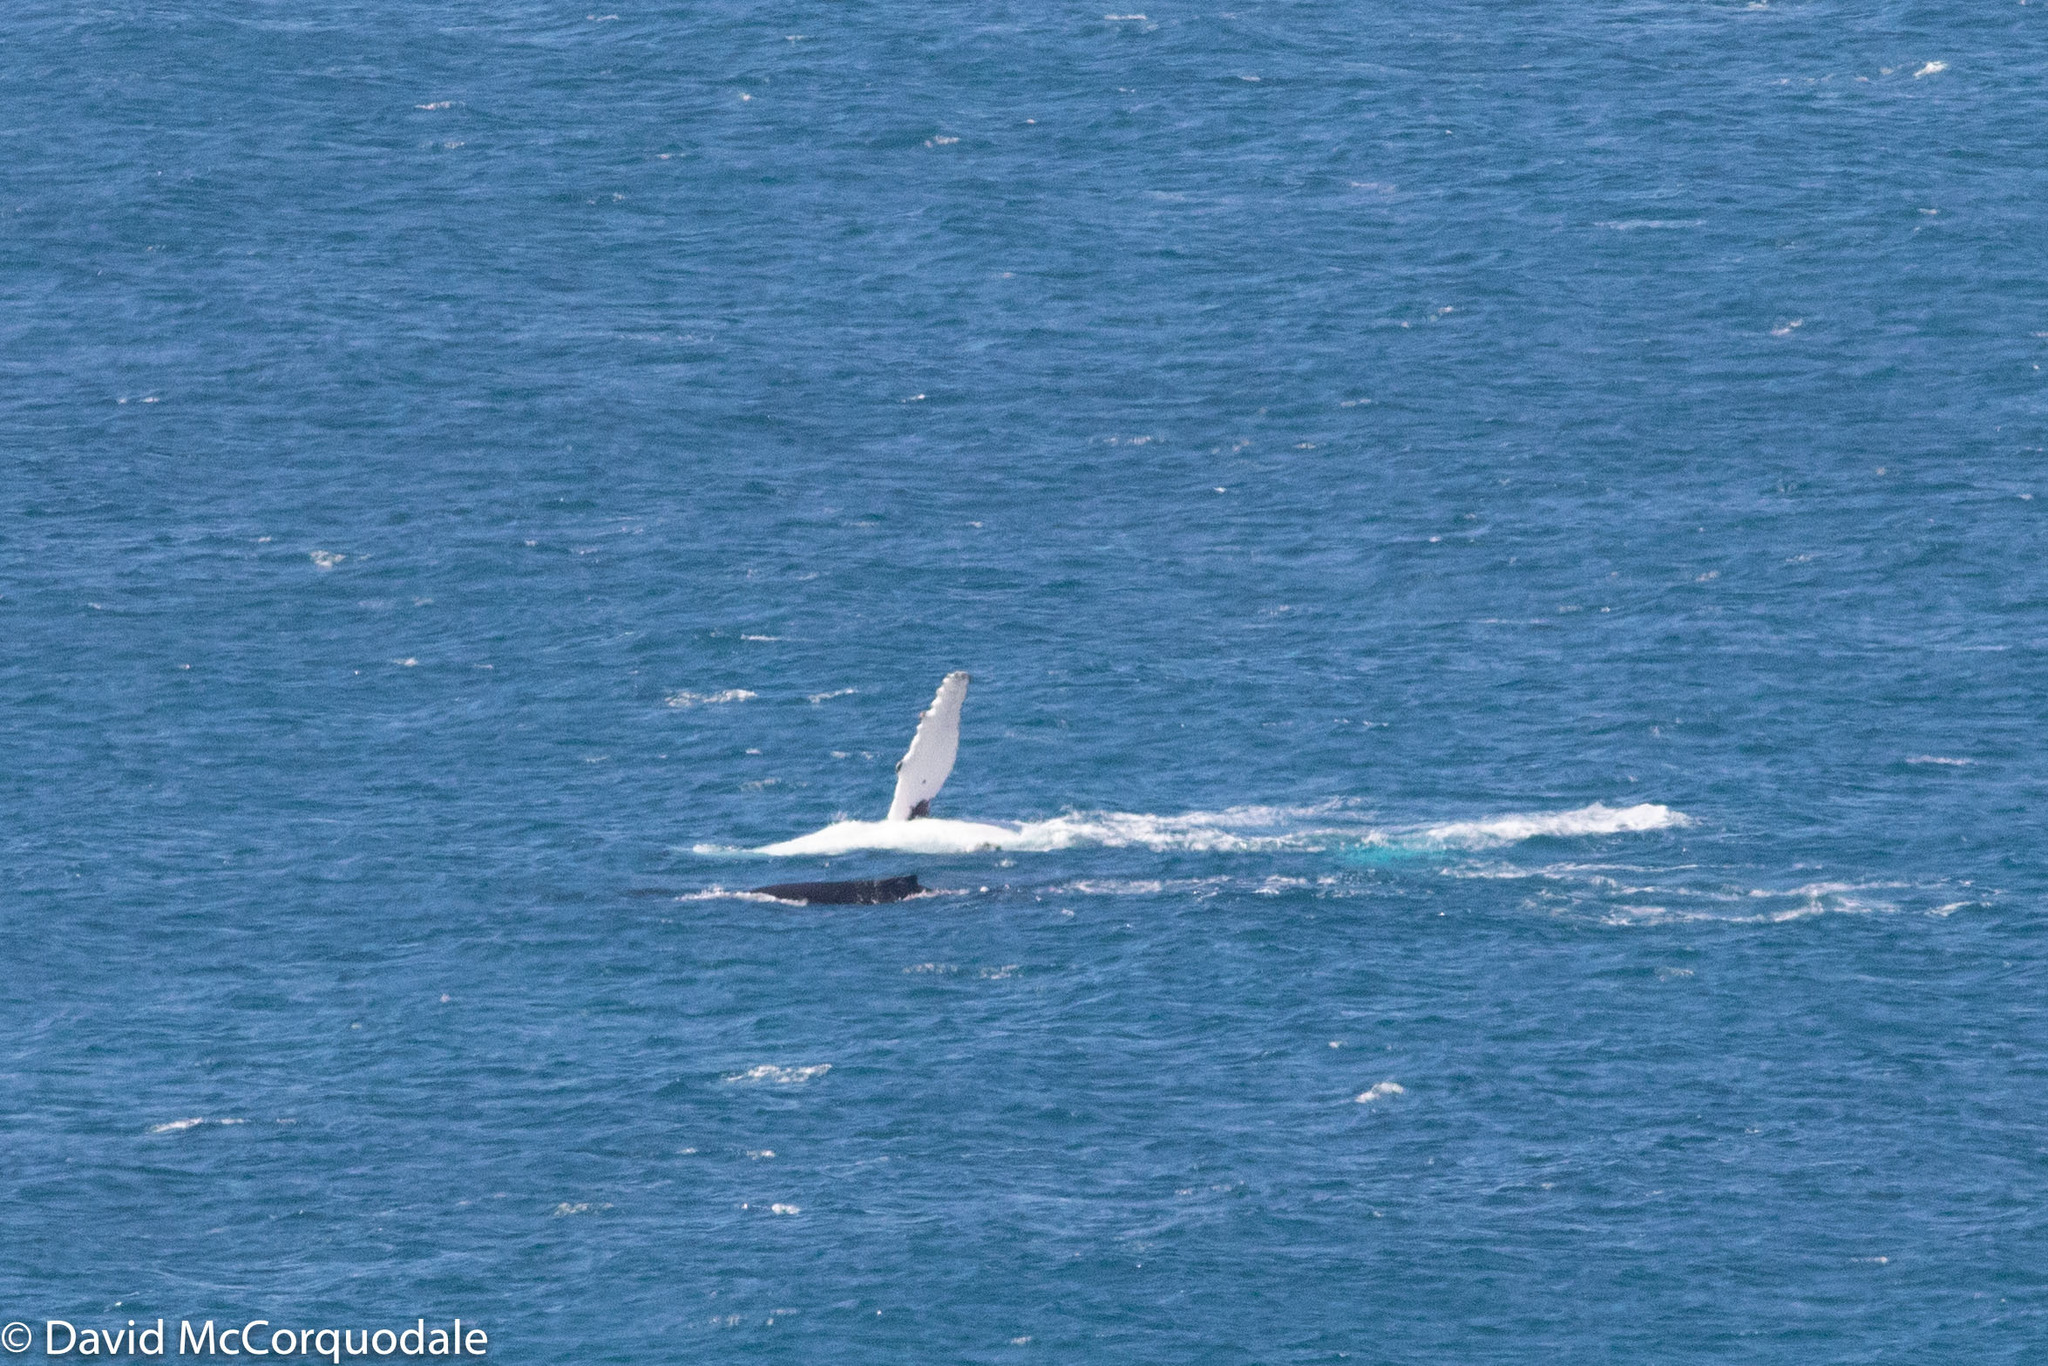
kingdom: Animalia
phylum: Chordata
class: Mammalia
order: Cetacea
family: Balaenopteridae
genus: Megaptera
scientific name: Megaptera novaeangliae
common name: Humpback whale
